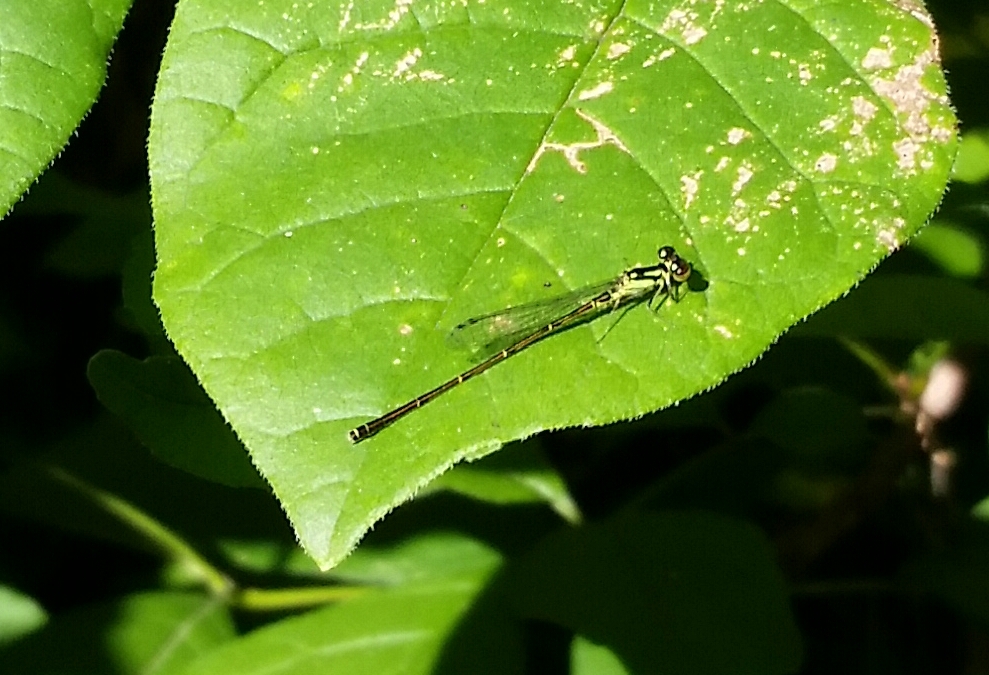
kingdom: Animalia
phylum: Arthropoda
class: Insecta
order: Odonata
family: Coenagrionidae
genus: Ischnura
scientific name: Ischnura posita
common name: Fragile forktail
